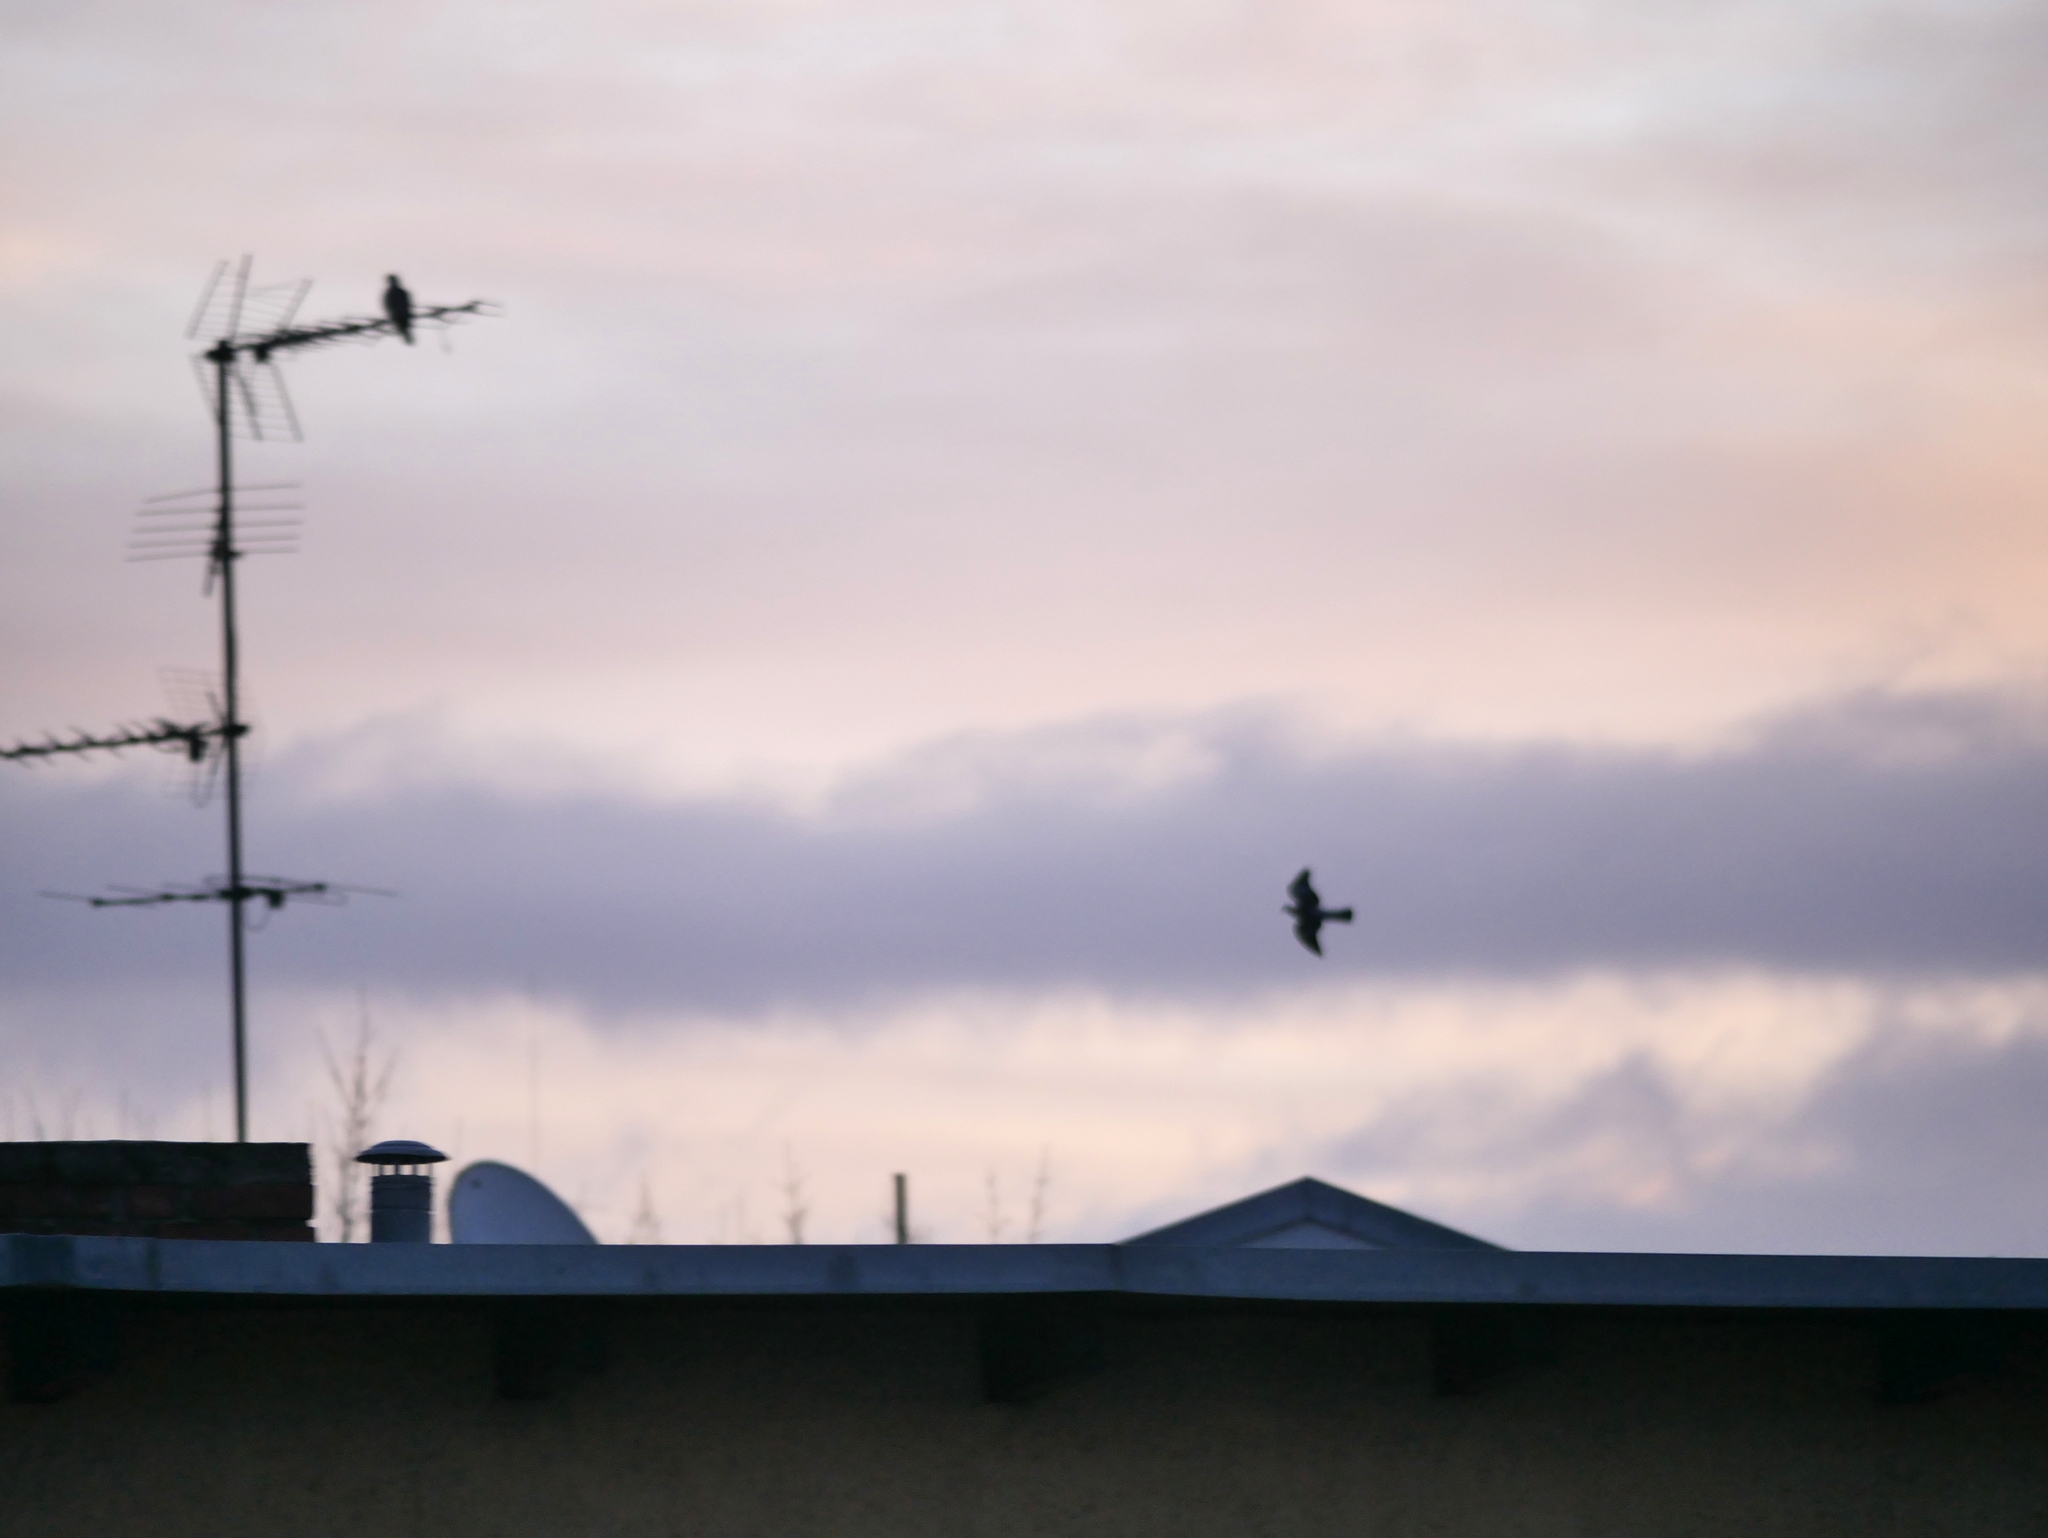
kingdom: Animalia
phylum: Chordata
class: Aves
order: Columbiformes
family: Columbidae
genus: Columba
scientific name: Columba palumbus
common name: Common wood pigeon
